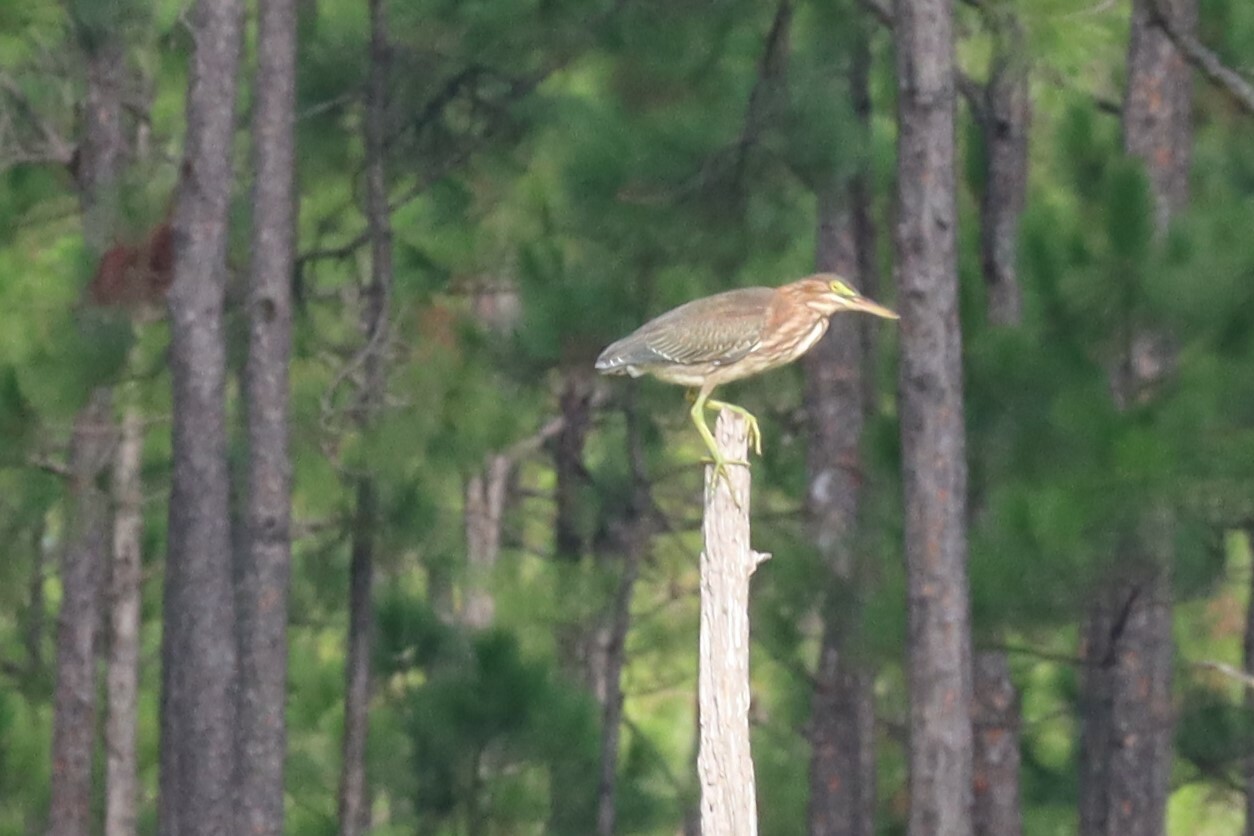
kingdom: Animalia
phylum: Chordata
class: Aves
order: Pelecaniformes
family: Ardeidae
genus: Butorides
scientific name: Butorides virescens
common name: Green heron
